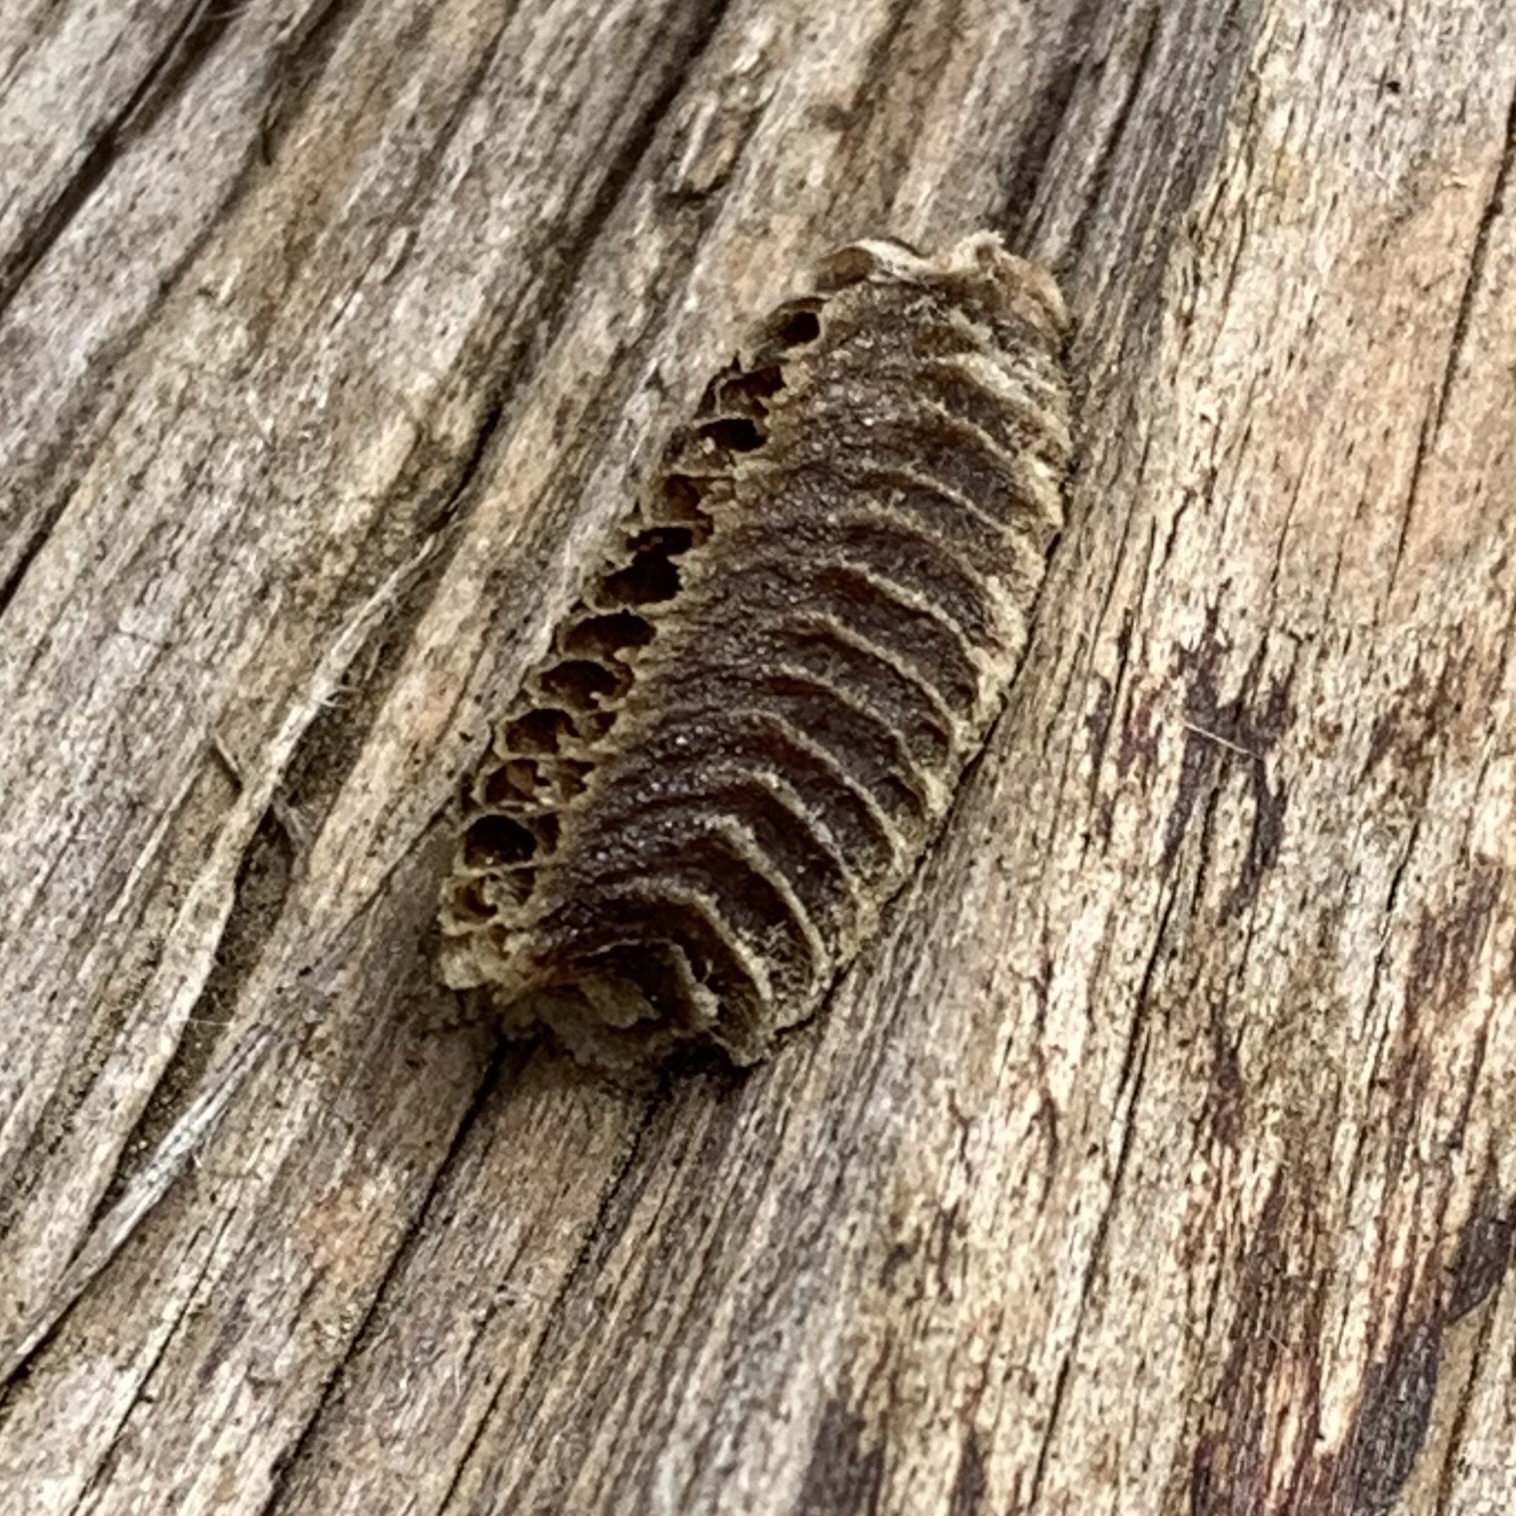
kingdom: Animalia
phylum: Arthropoda
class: Insecta
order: Mantodea
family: Eremiaphilidae
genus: Iris
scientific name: Iris oratoria
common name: Mediterranean mantis
